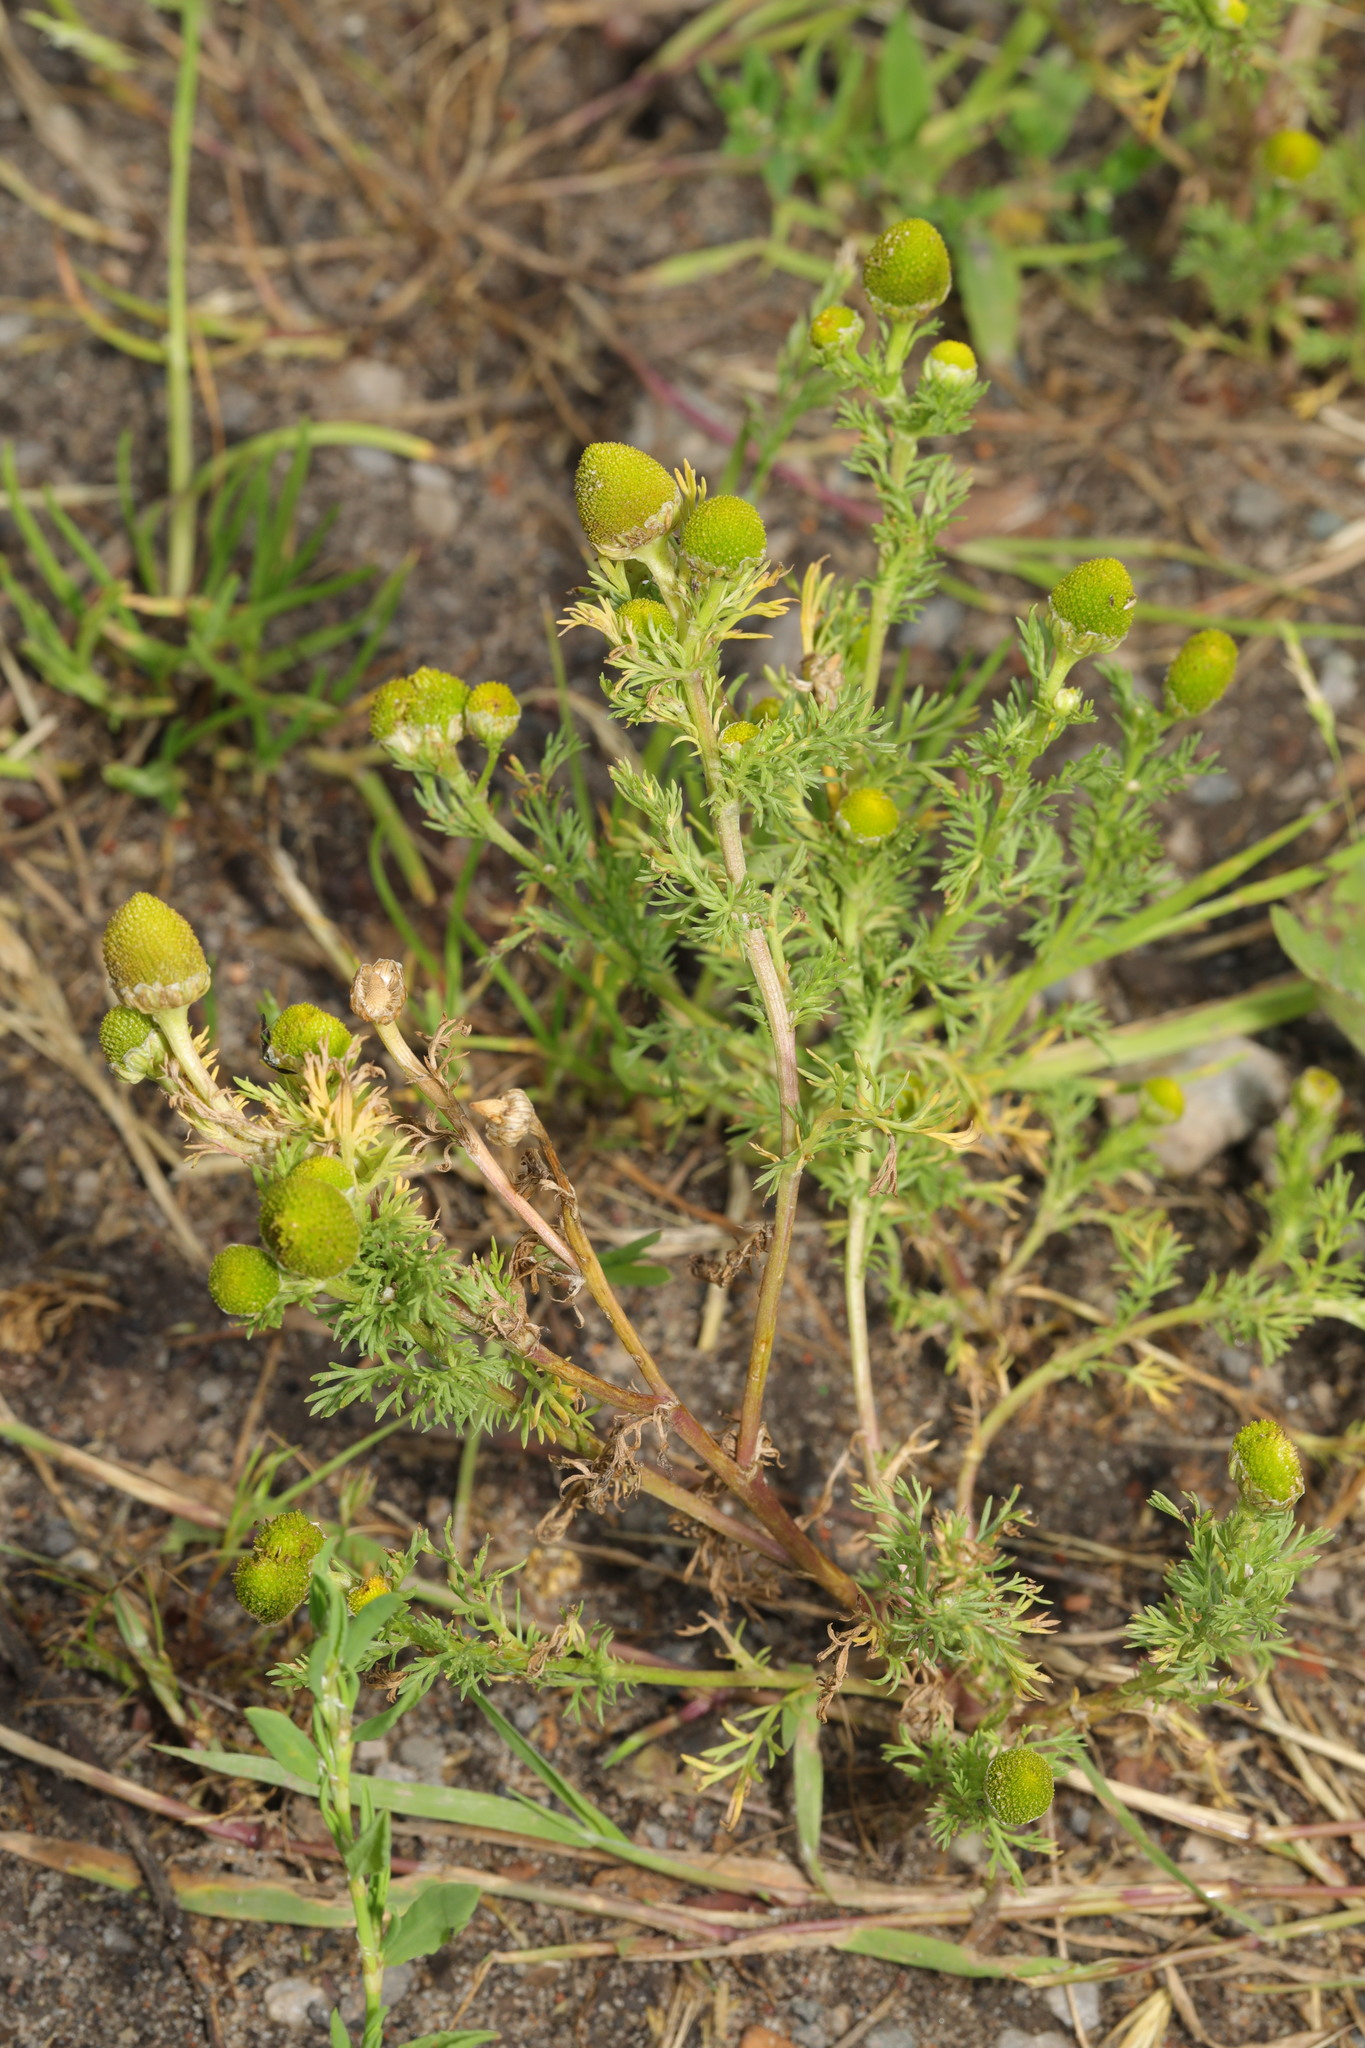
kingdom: Plantae
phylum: Tracheophyta
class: Magnoliopsida
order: Asterales
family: Asteraceae
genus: Matricaria
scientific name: Matricaria discoidea
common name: Disc mayweed
